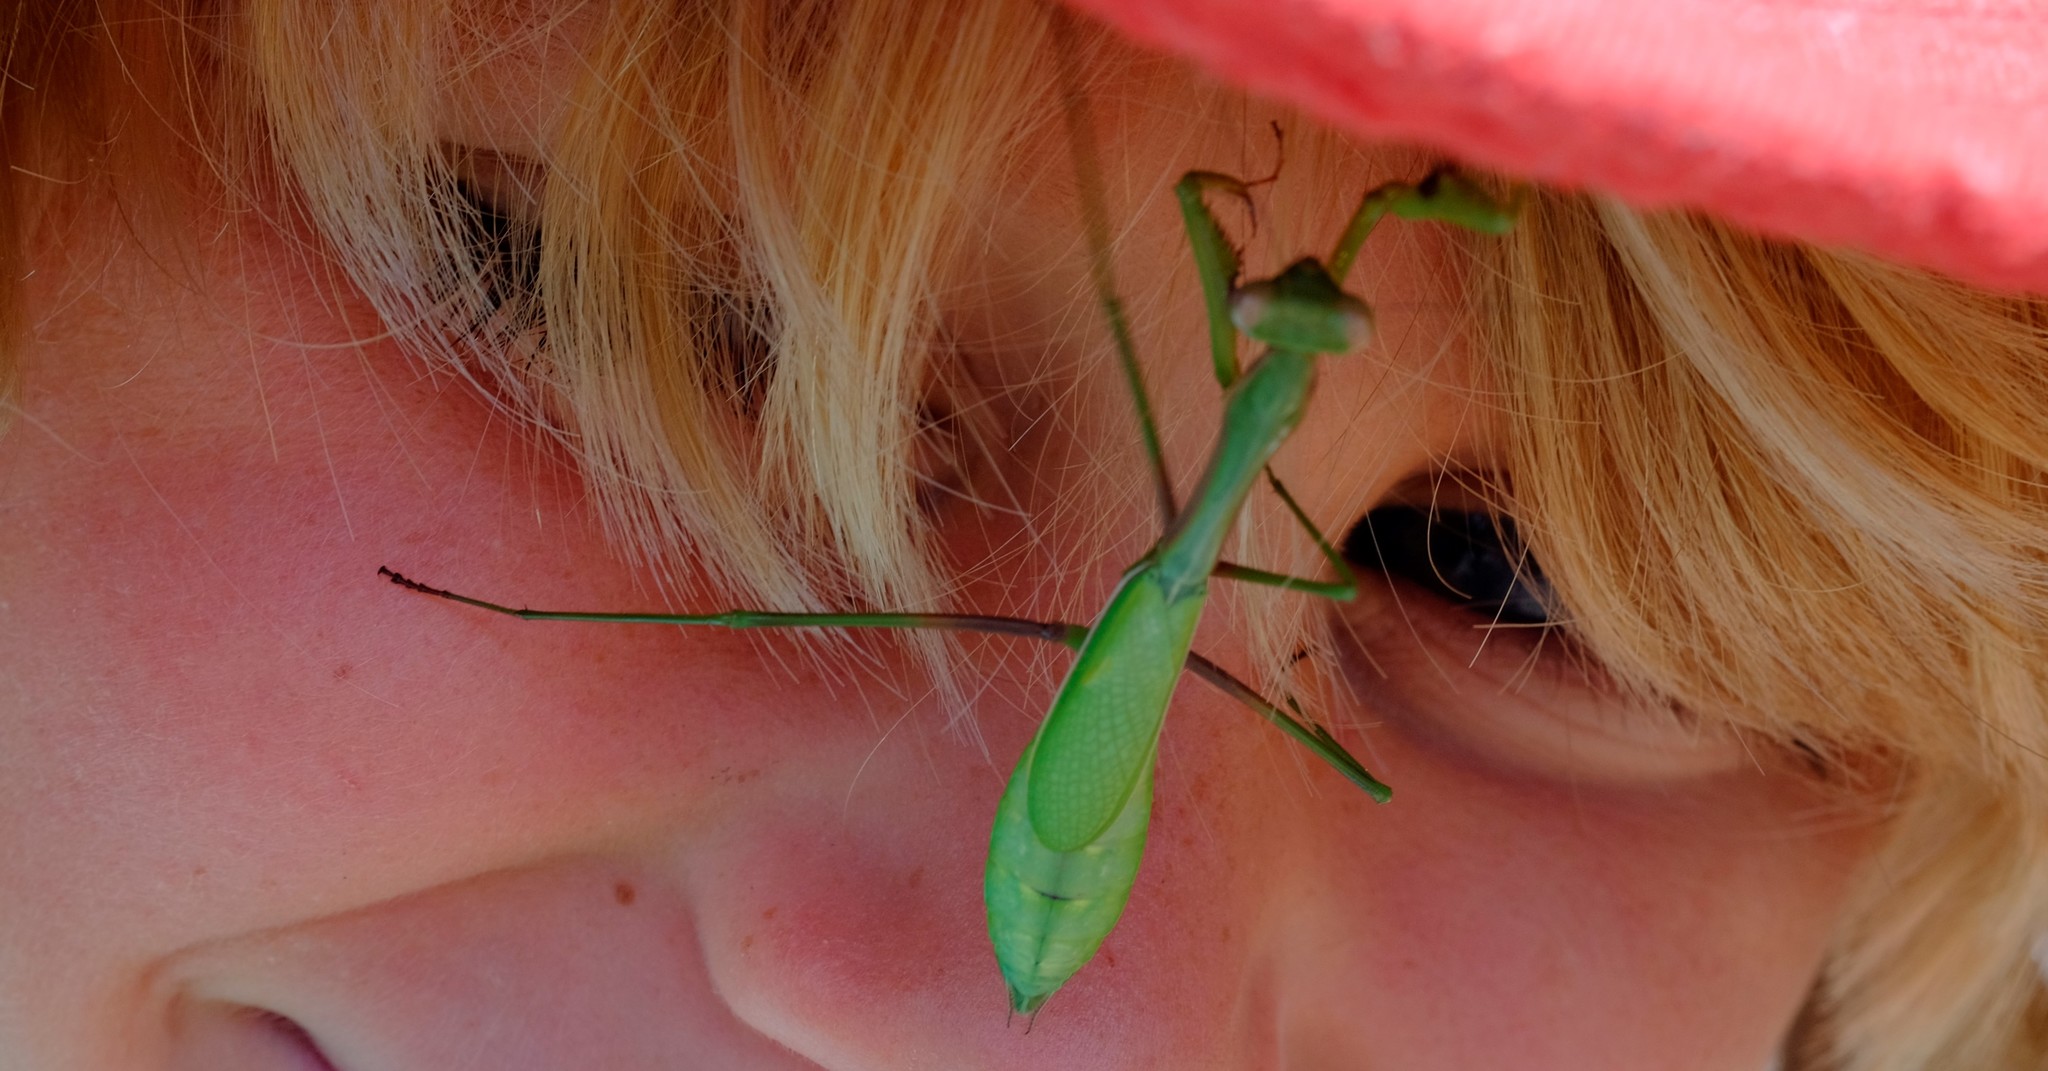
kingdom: Animalia
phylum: Arthropoda
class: Insecta
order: Mantodea
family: Mantidae
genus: Pseudomantis
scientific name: Pseudomantis albofimbriata
